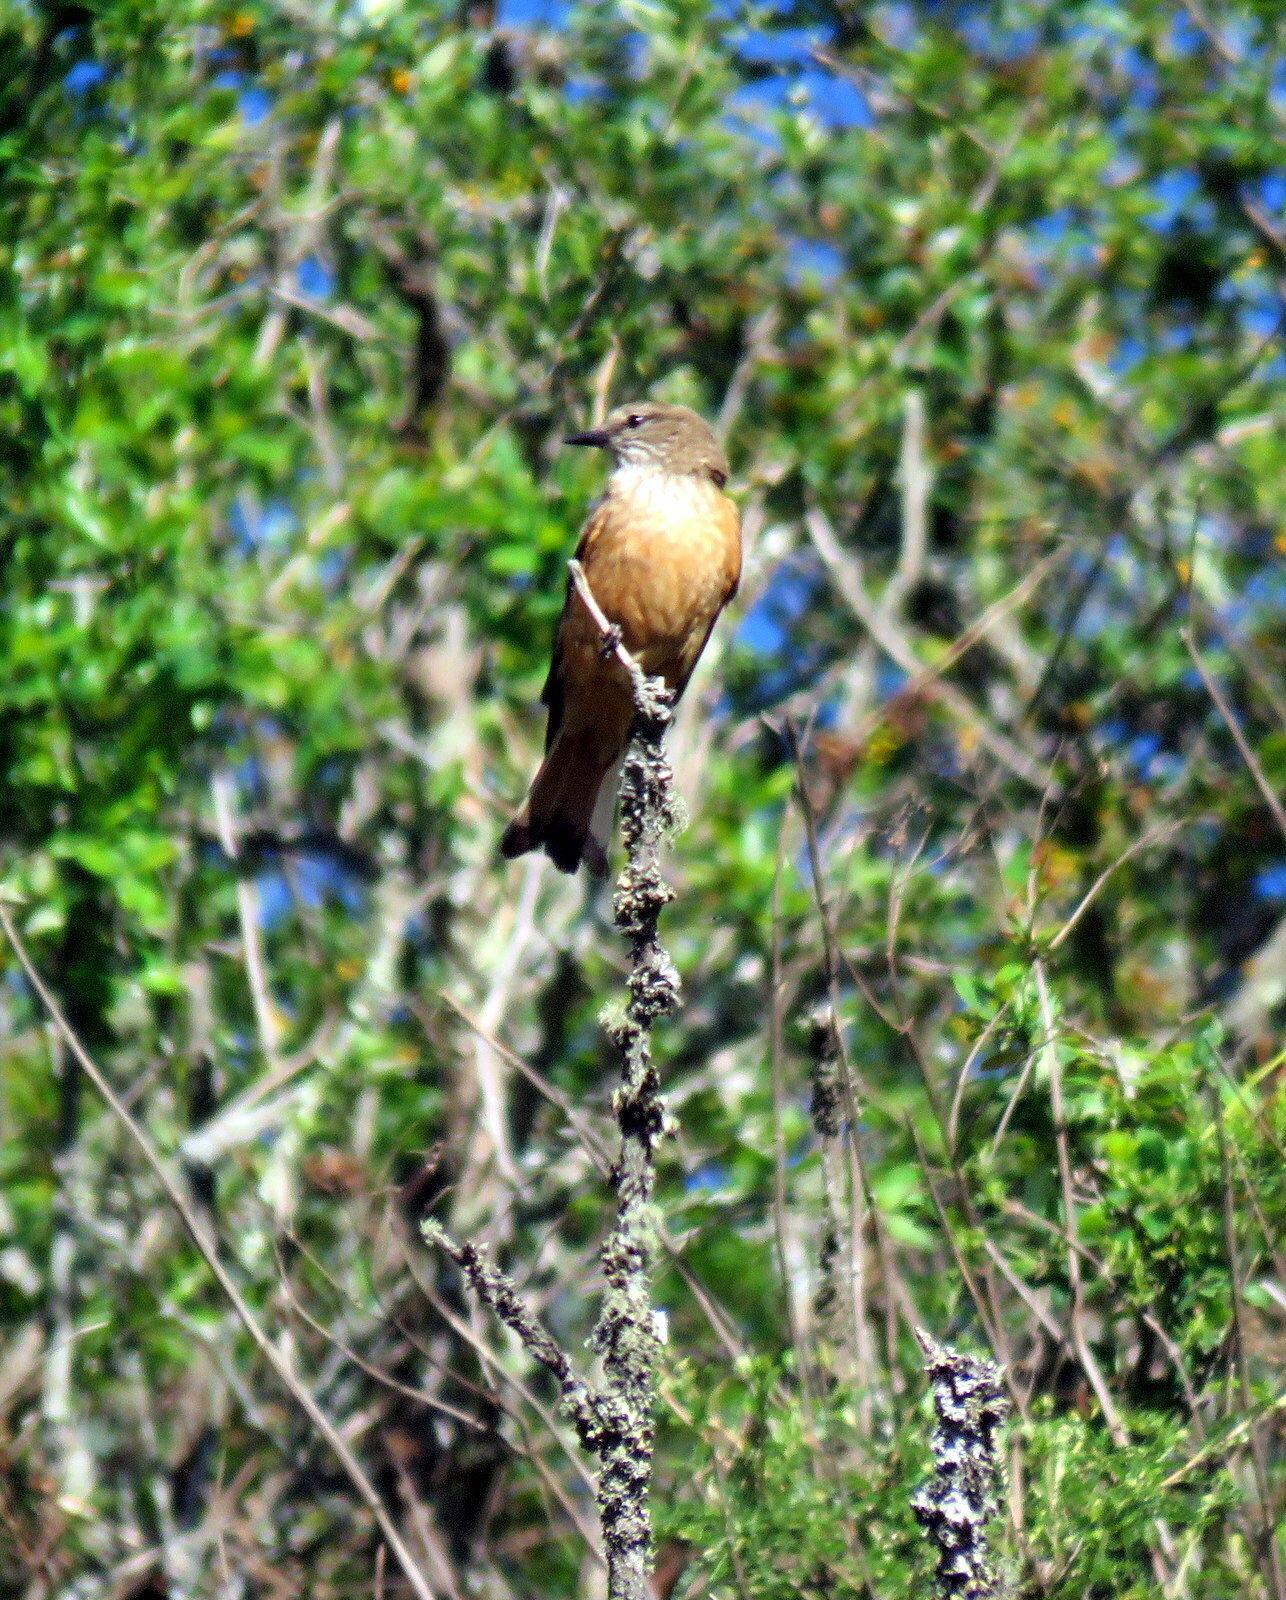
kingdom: Animalia
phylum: Chordata
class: Aves
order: Passeriformes
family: Tyrannidae
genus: Myiotheretes
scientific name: Myiotheretes striaticollis
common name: Streak-throated bush tyrant
